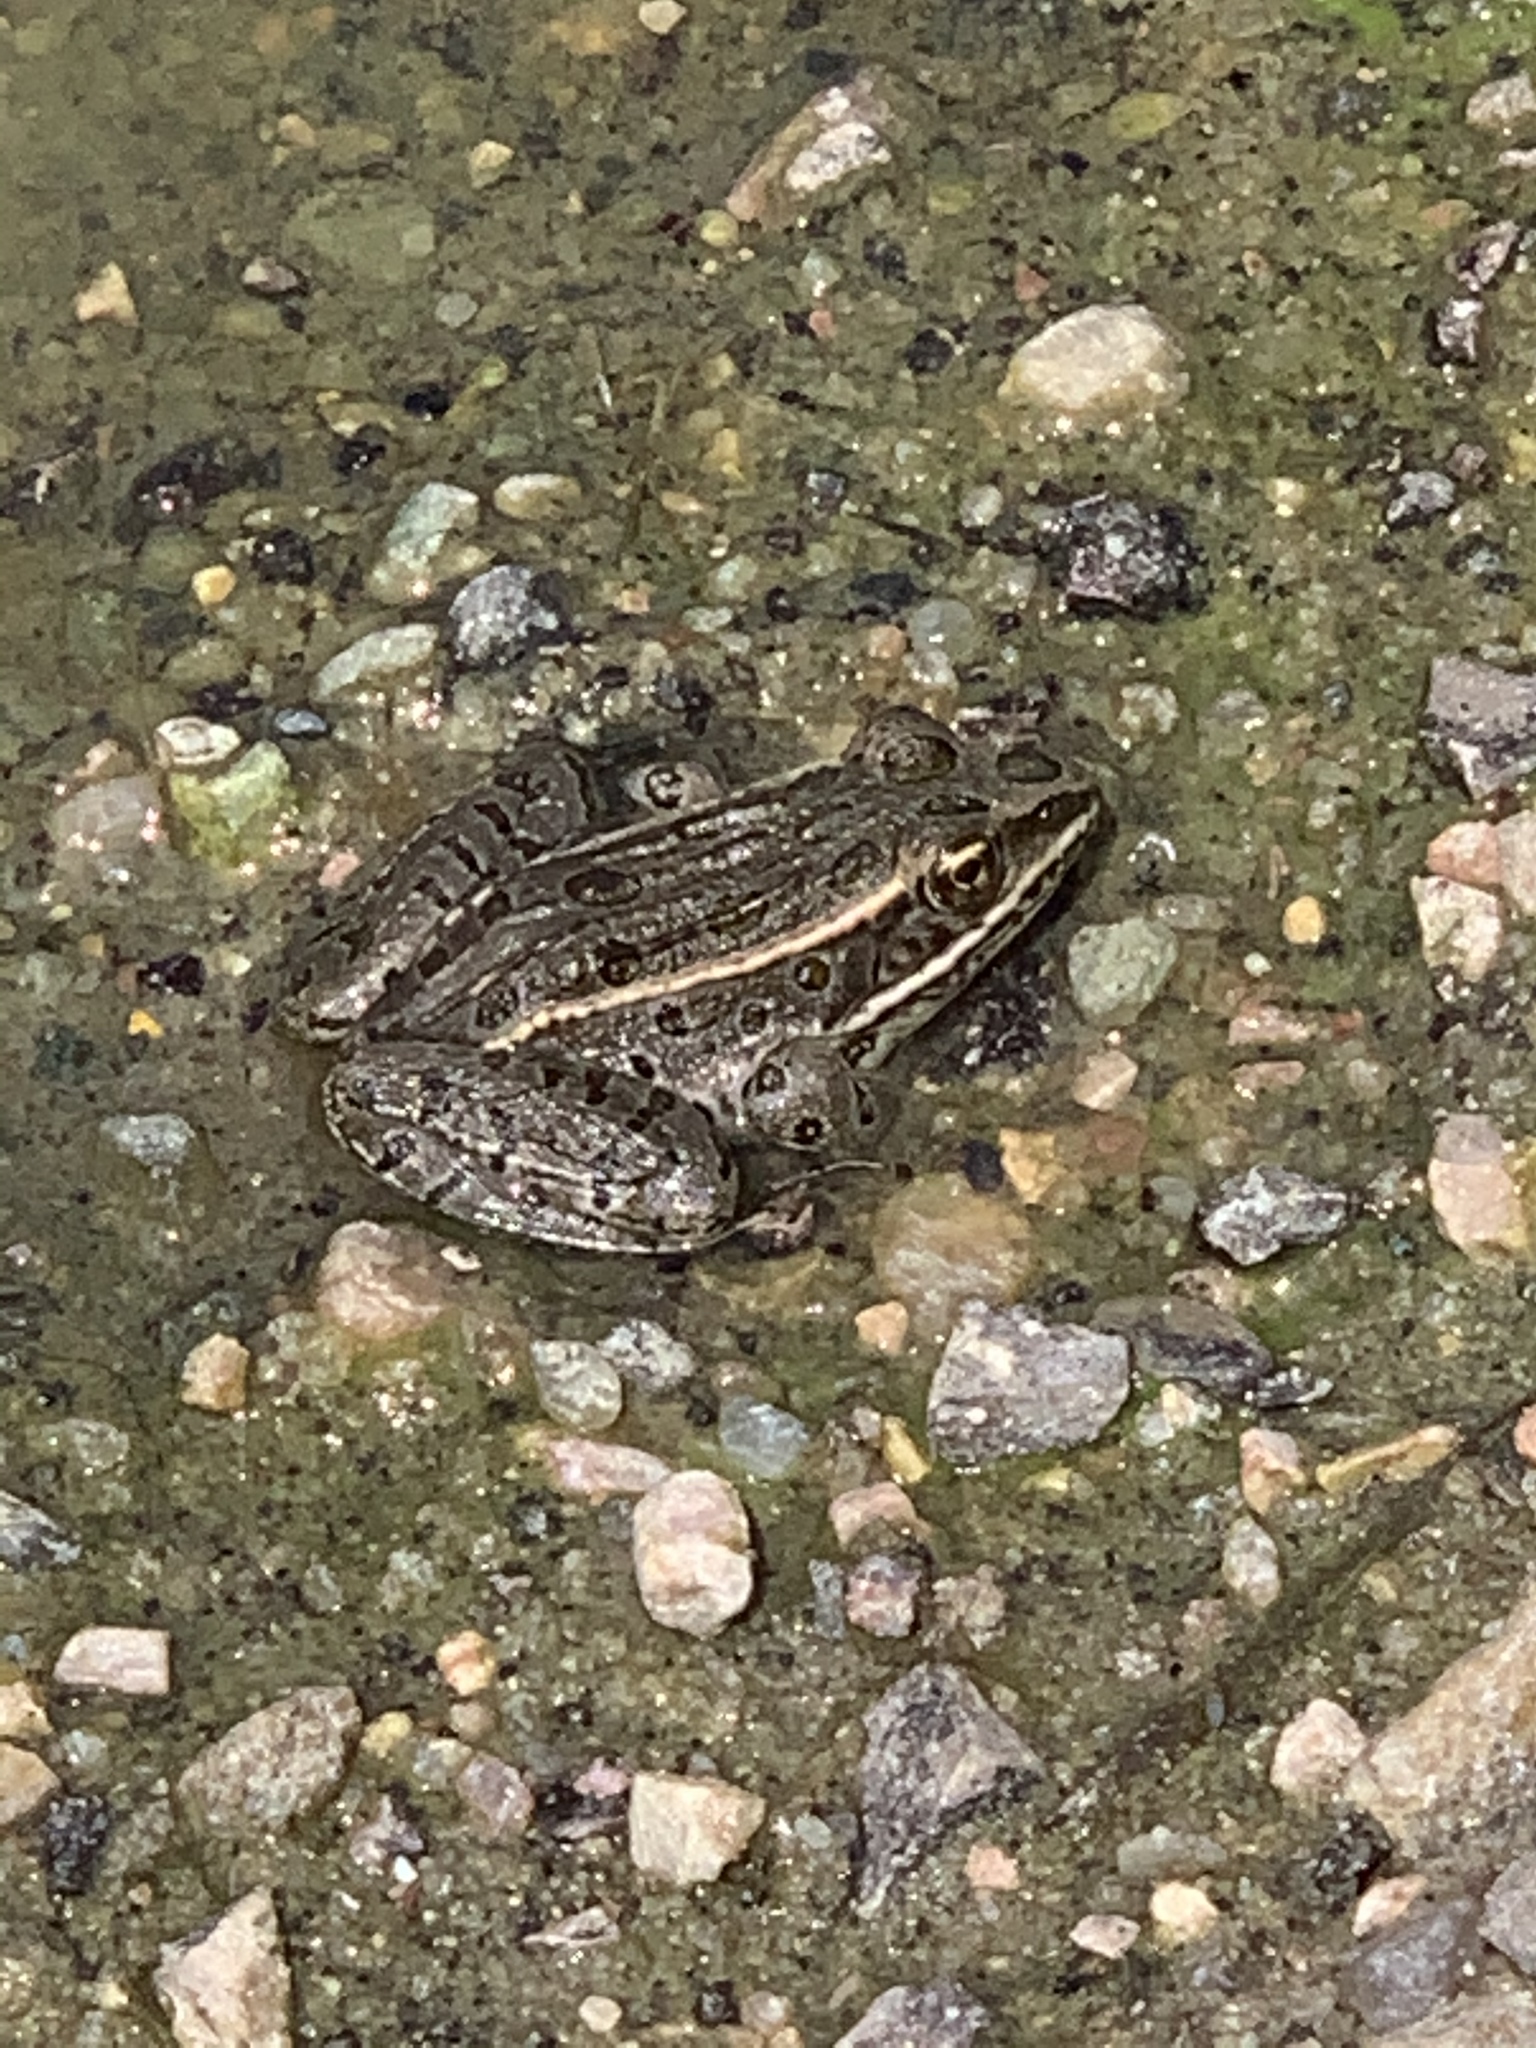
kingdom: Animalia
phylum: Chordata
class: Amphibia
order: Anura
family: Ranidae
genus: Lithobates
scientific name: Lithobates pipiens
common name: Northern leopard frog
